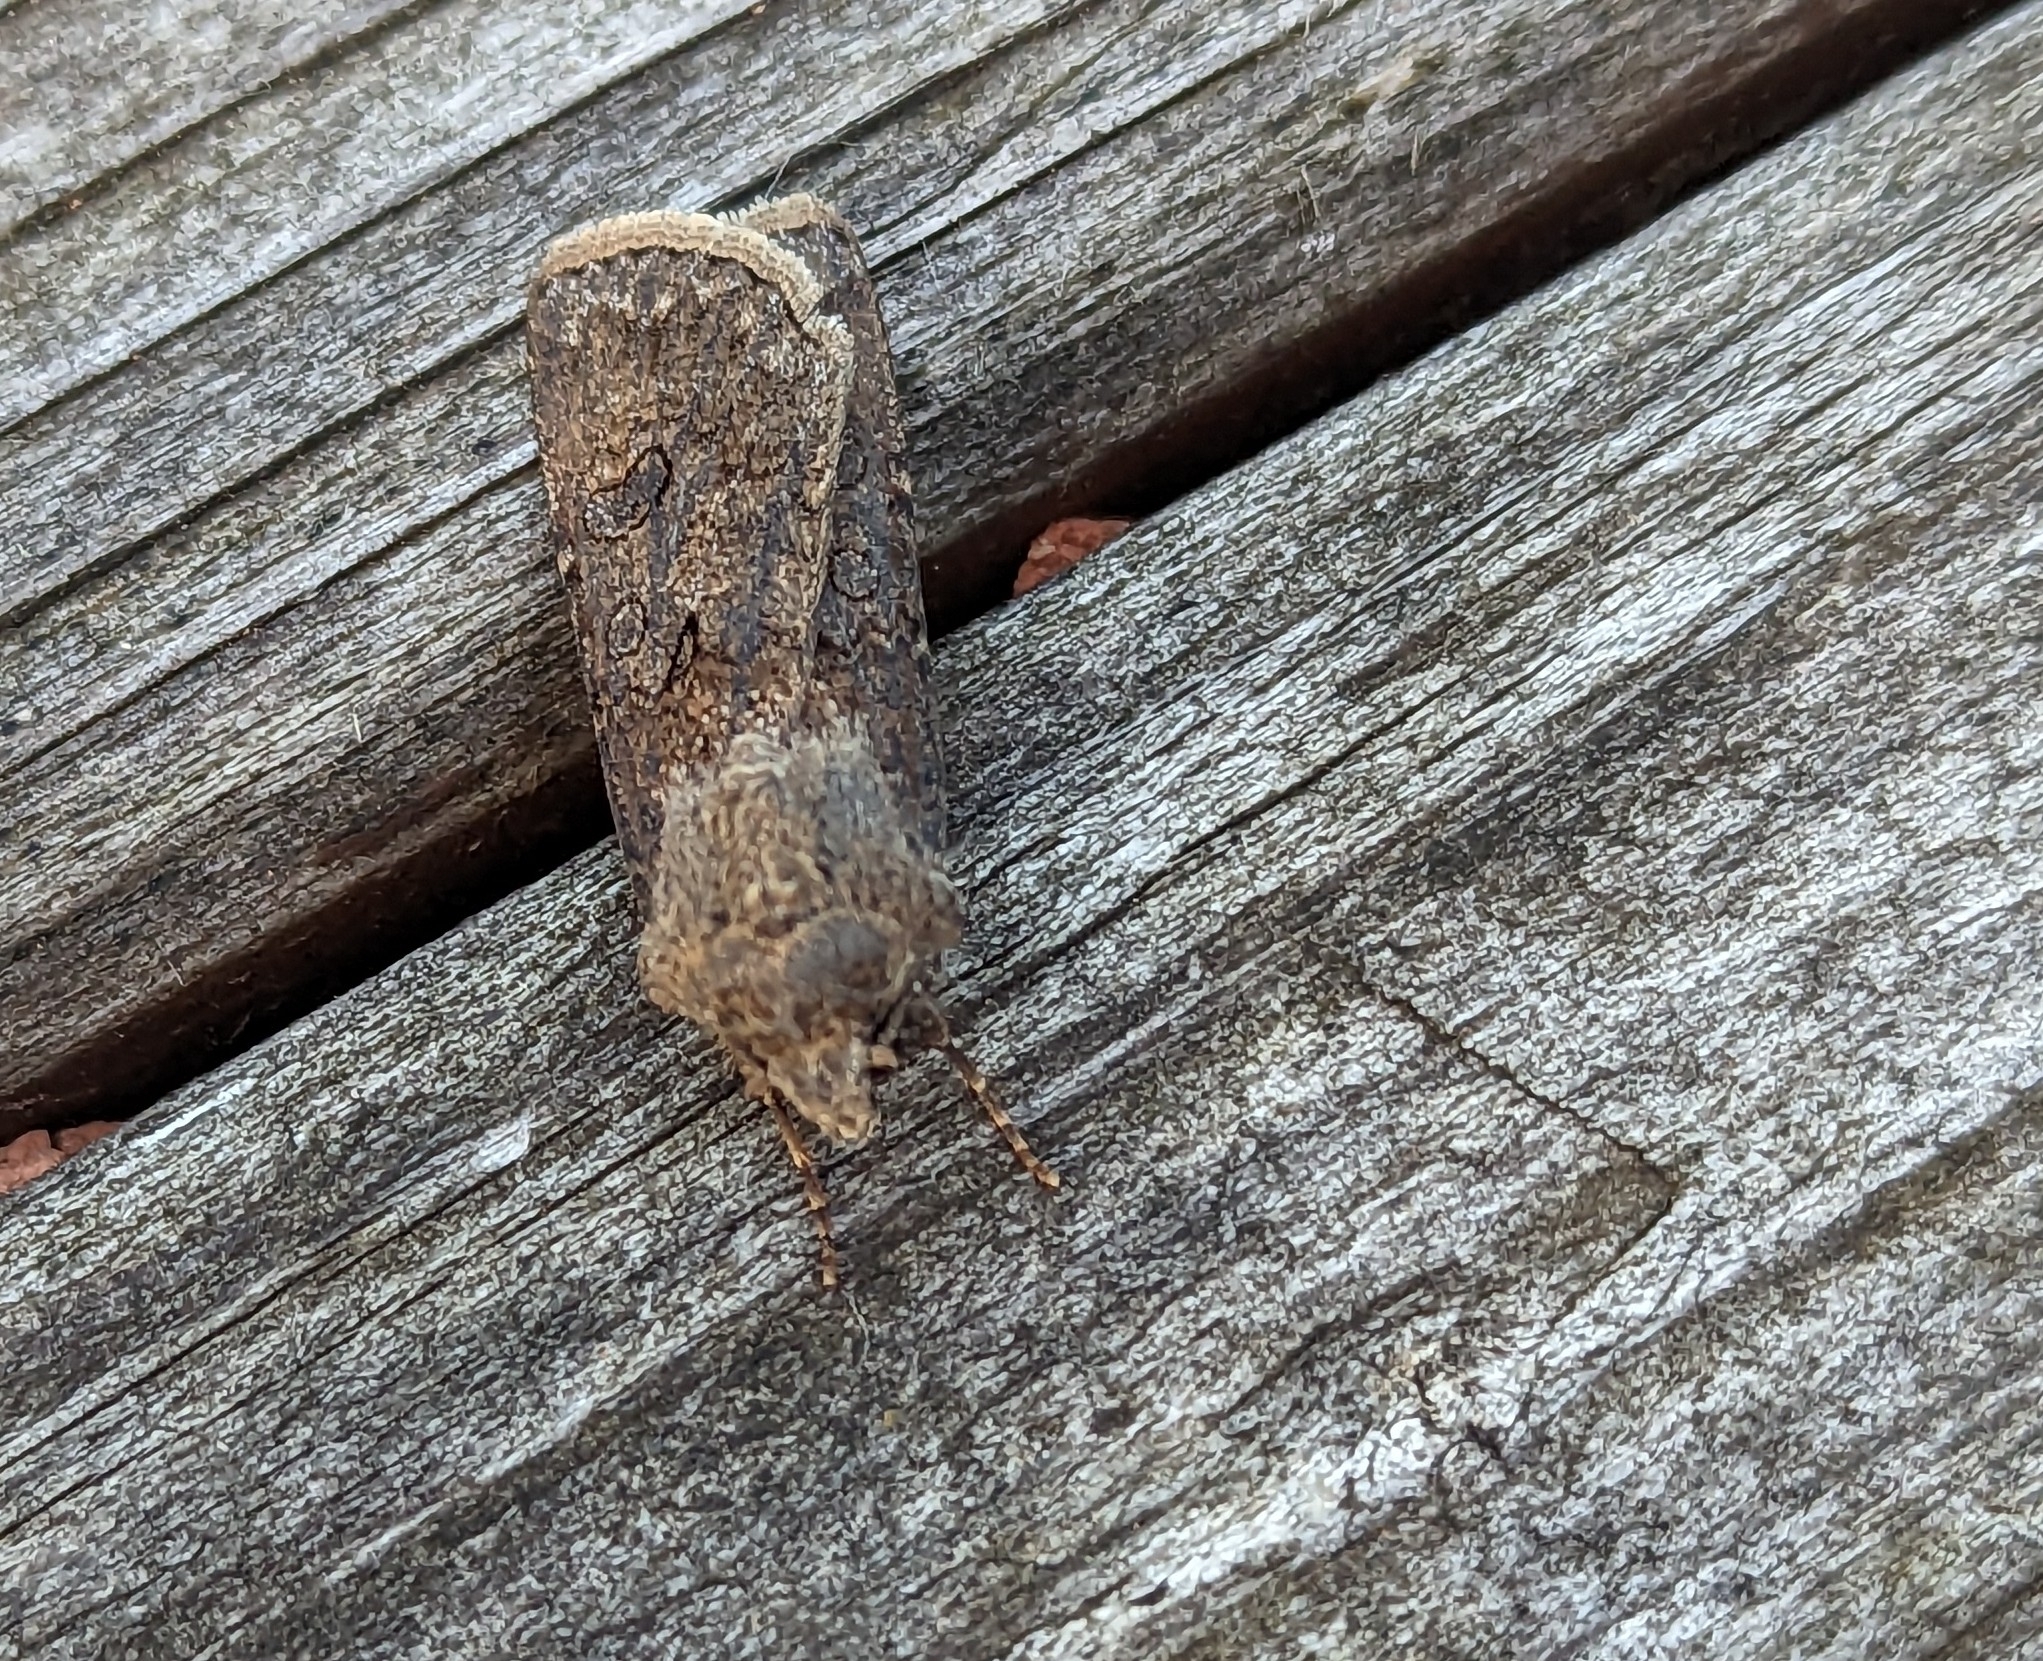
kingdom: Animalia
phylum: Arthropoda
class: Insecta
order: Lepidoptera
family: Noctuidae
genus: Agrotis
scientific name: Agrotis segetum
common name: Turnip moth
